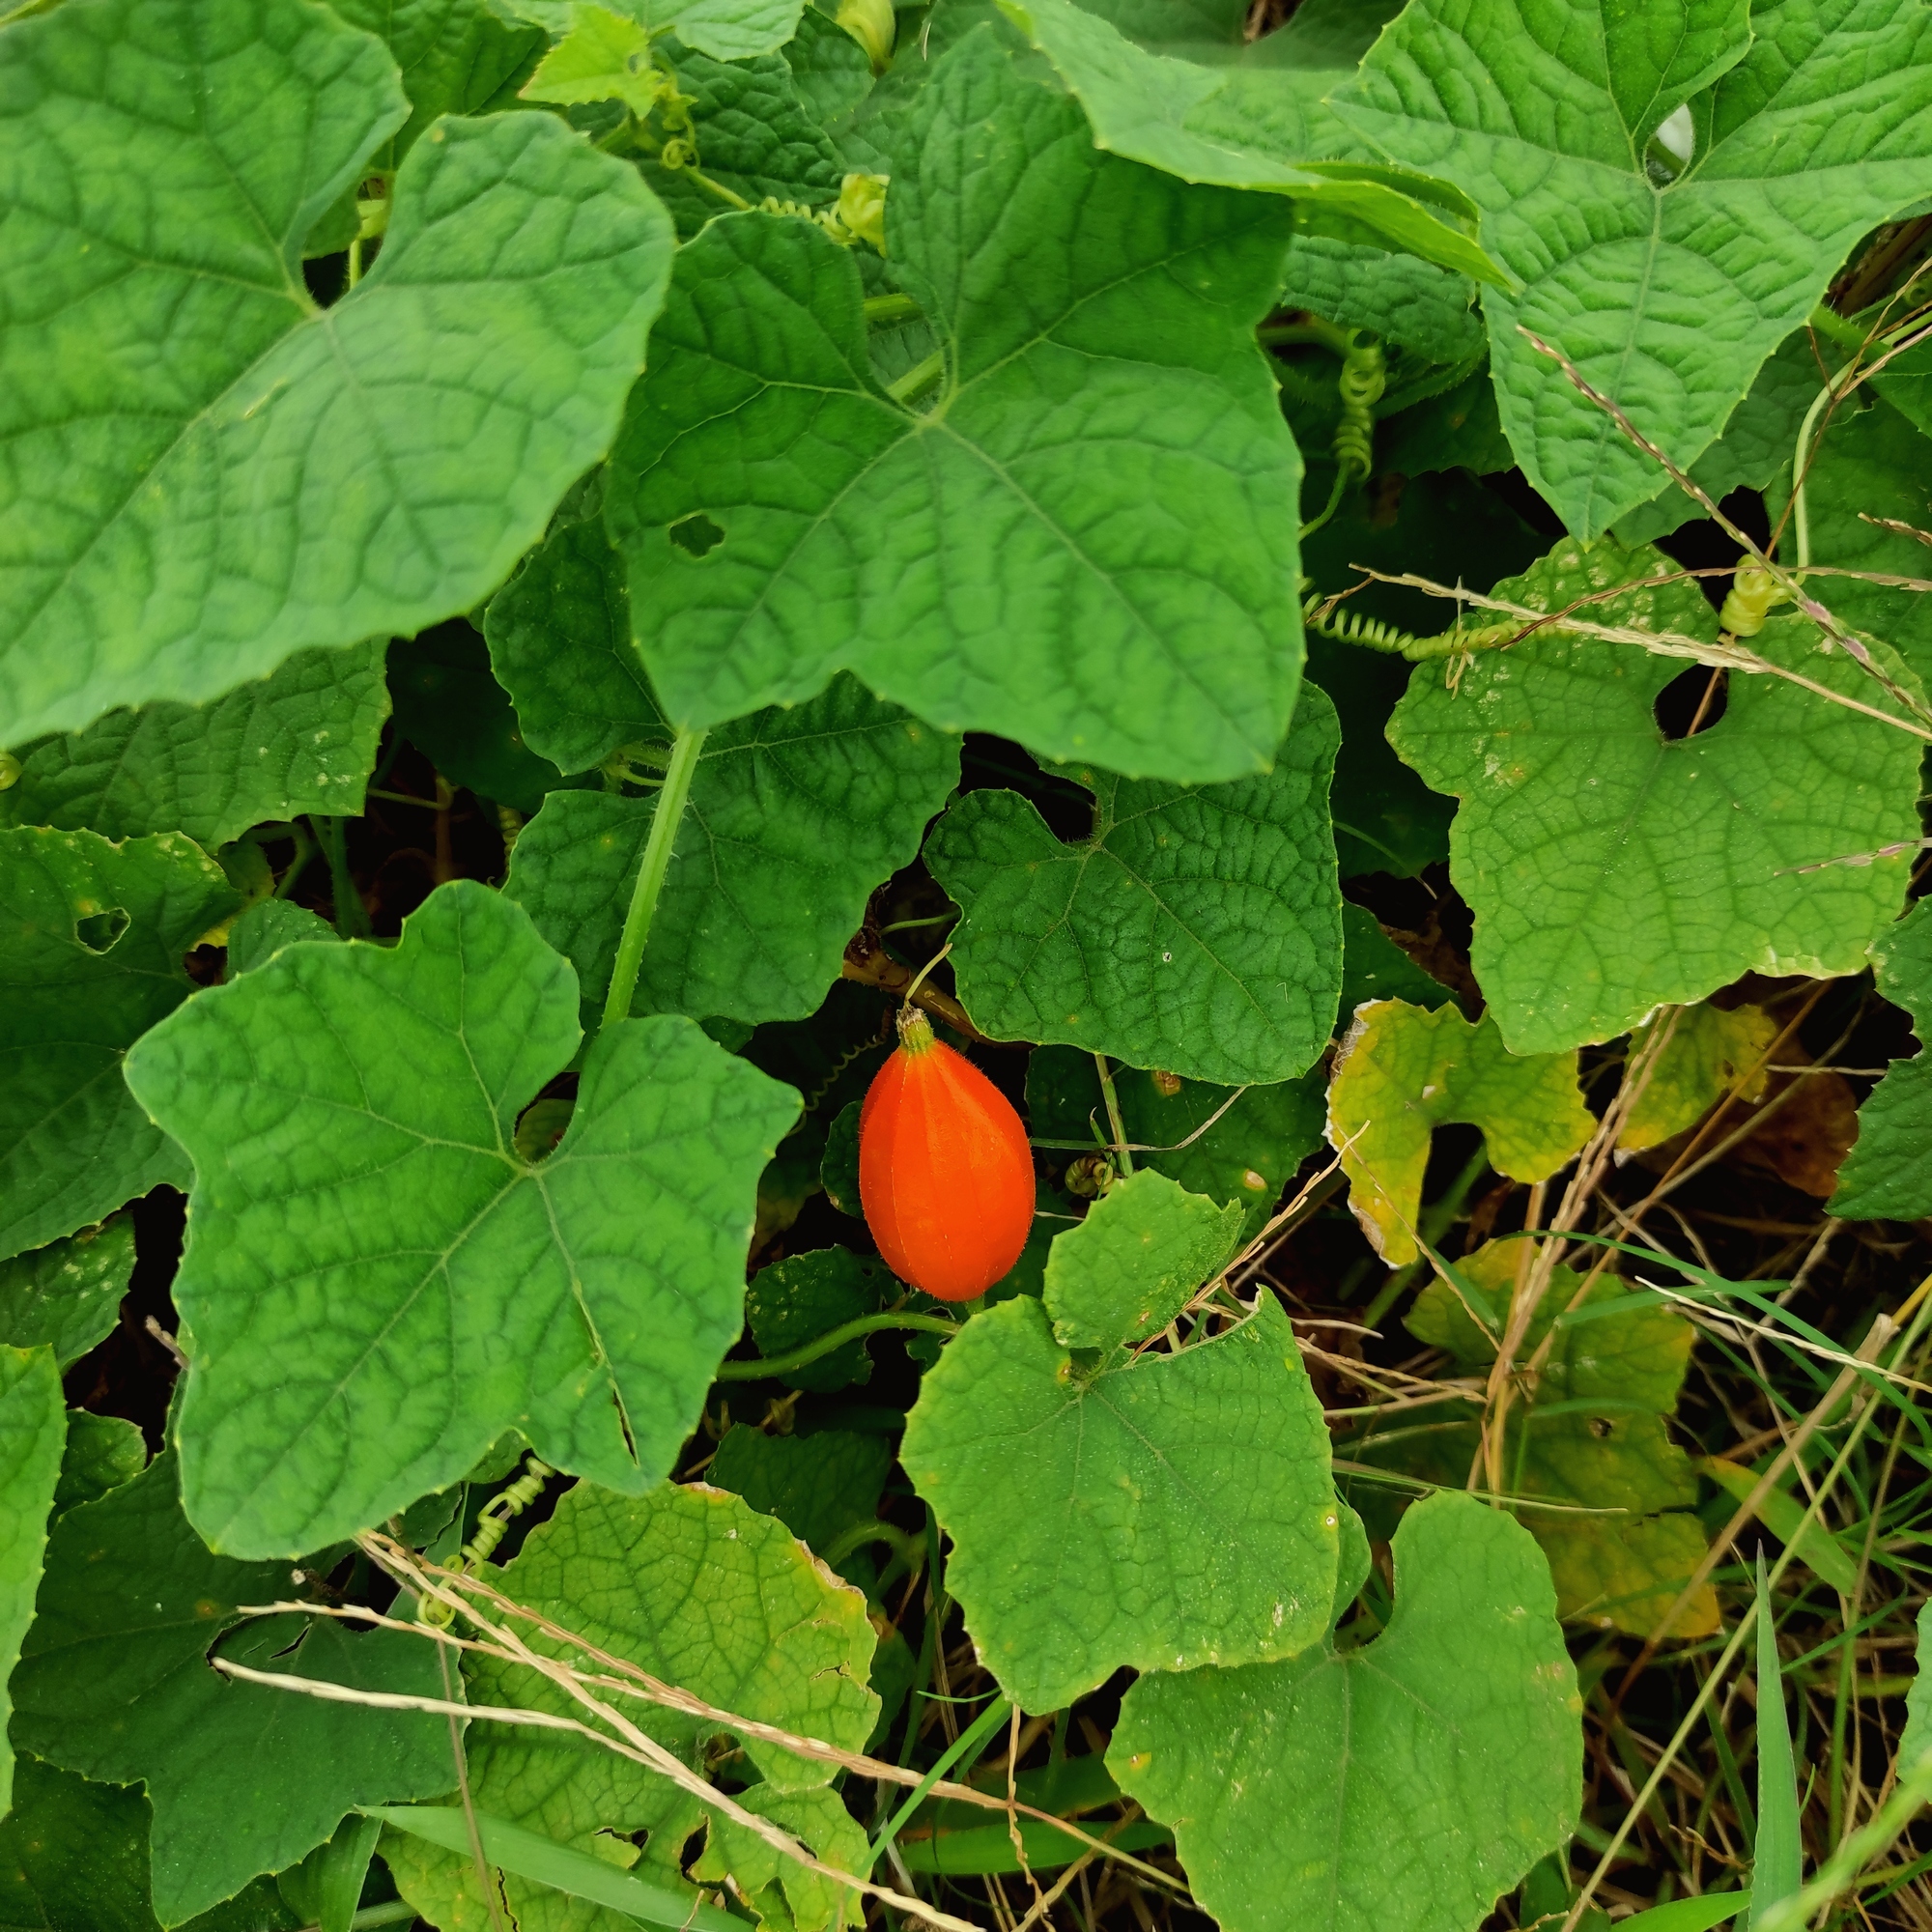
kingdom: Plantae
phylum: Tracheophyta
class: Magnoliopsida
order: Cucurbitales
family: Cucurbitaceae
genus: Trichosanthes
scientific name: Trichosanthes costata
